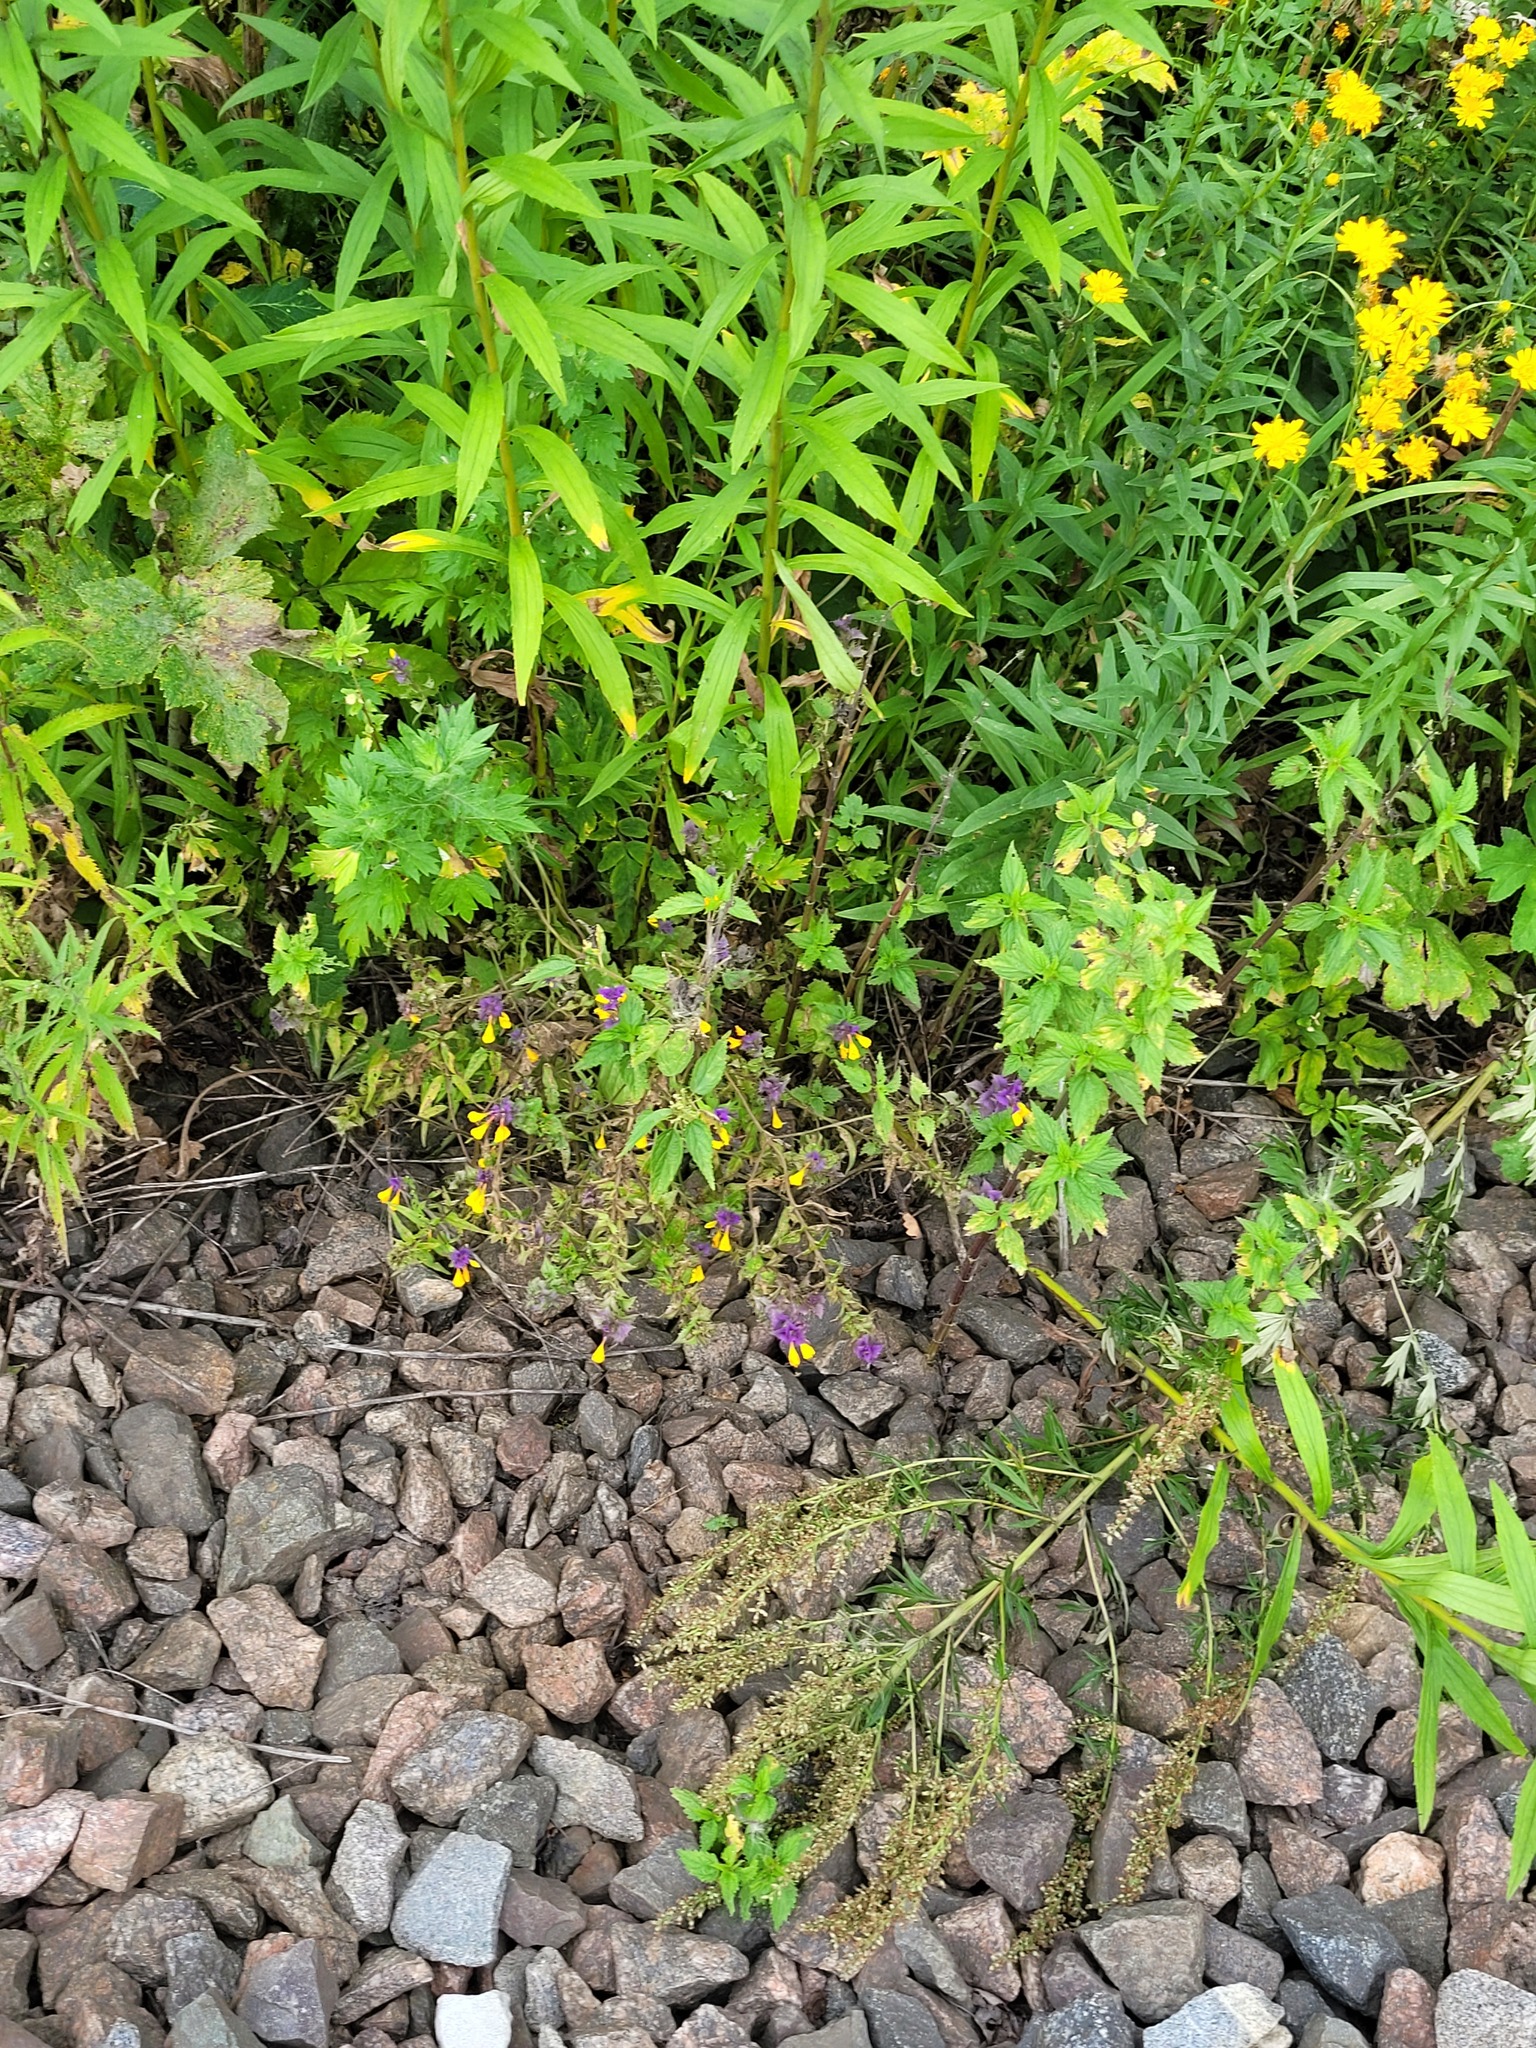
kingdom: Plantae
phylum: Tracheophyta
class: Magnoliopsida
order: Lamiales
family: Orobanchaceae
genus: Melampyrum
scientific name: Melampyrum nemorosum
